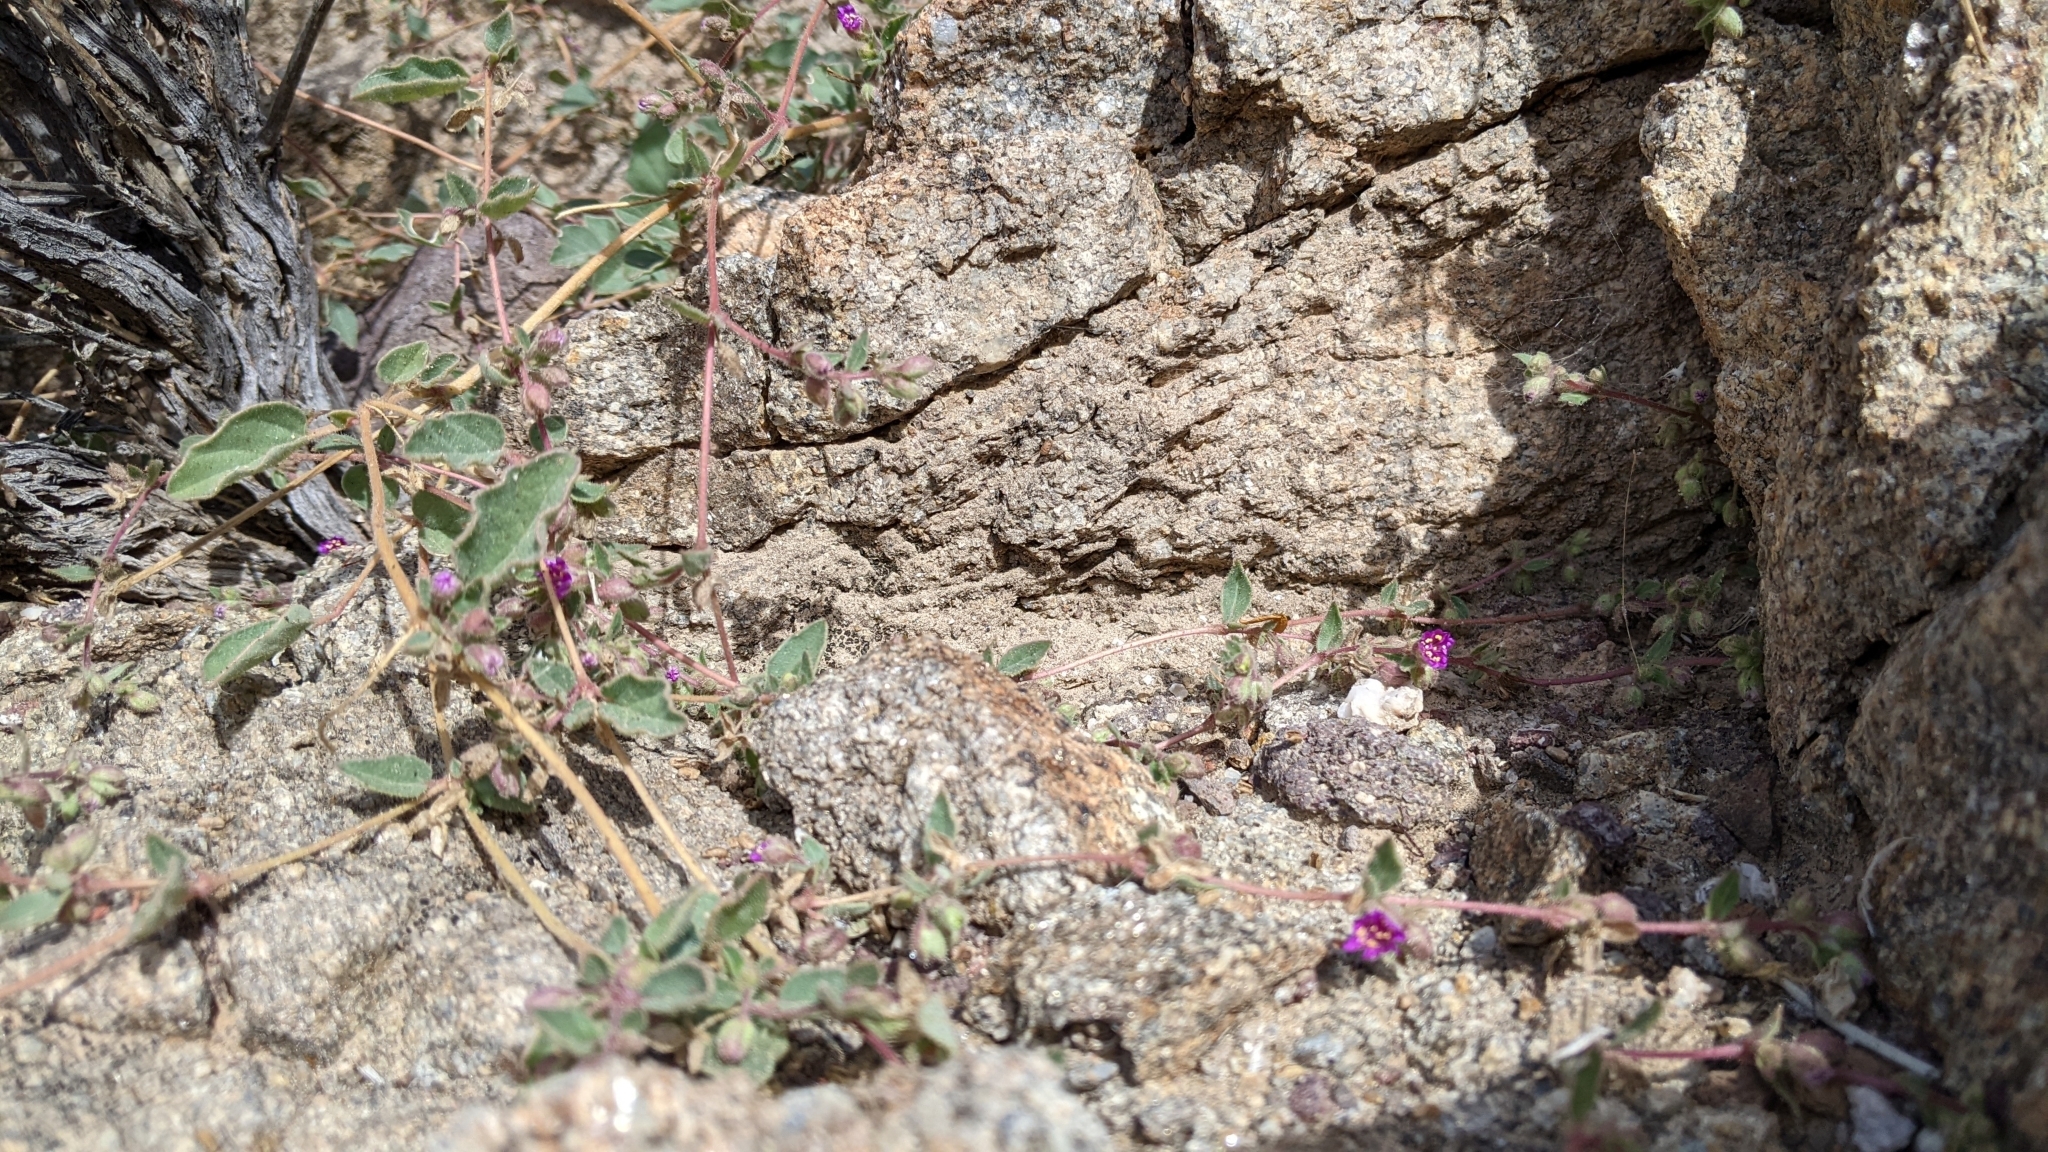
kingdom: Plantae
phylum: Tracheophyta
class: Magnoliopsida
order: Caryophyllales
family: Nyctaginaceae
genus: Allionia
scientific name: Allionia incarnata
